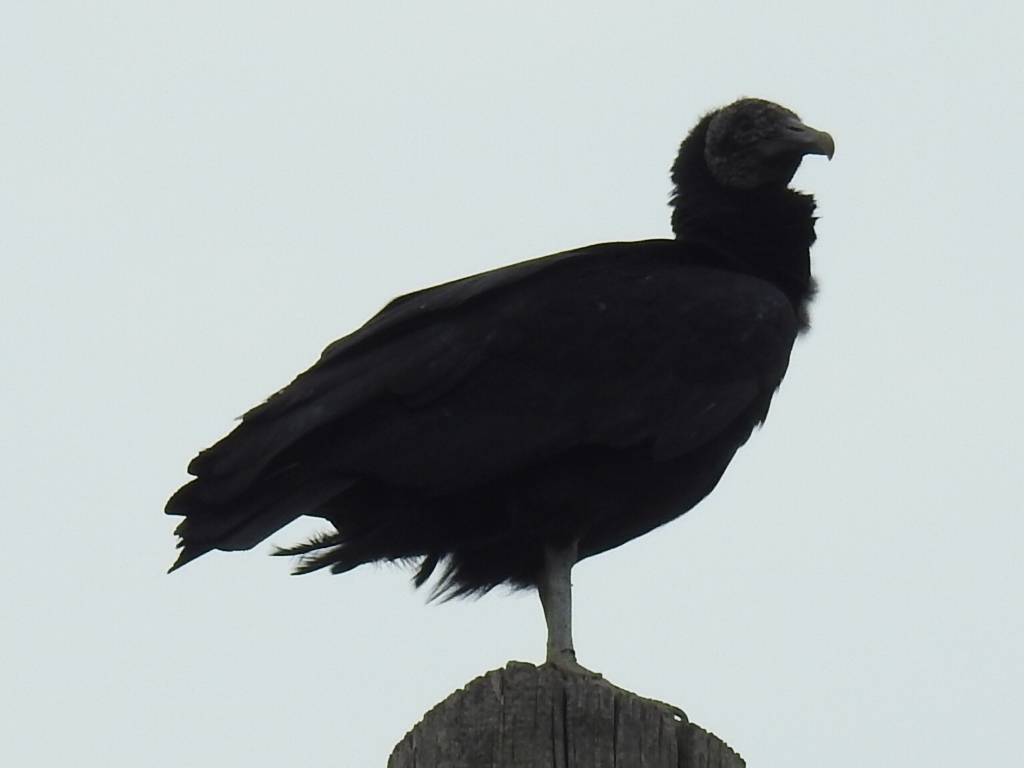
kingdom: Animalia
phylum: Chordata
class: Aves
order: Accipitriformes
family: Cathartidae
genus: Coragyps
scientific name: Coragyps atratus
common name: Black vulture
